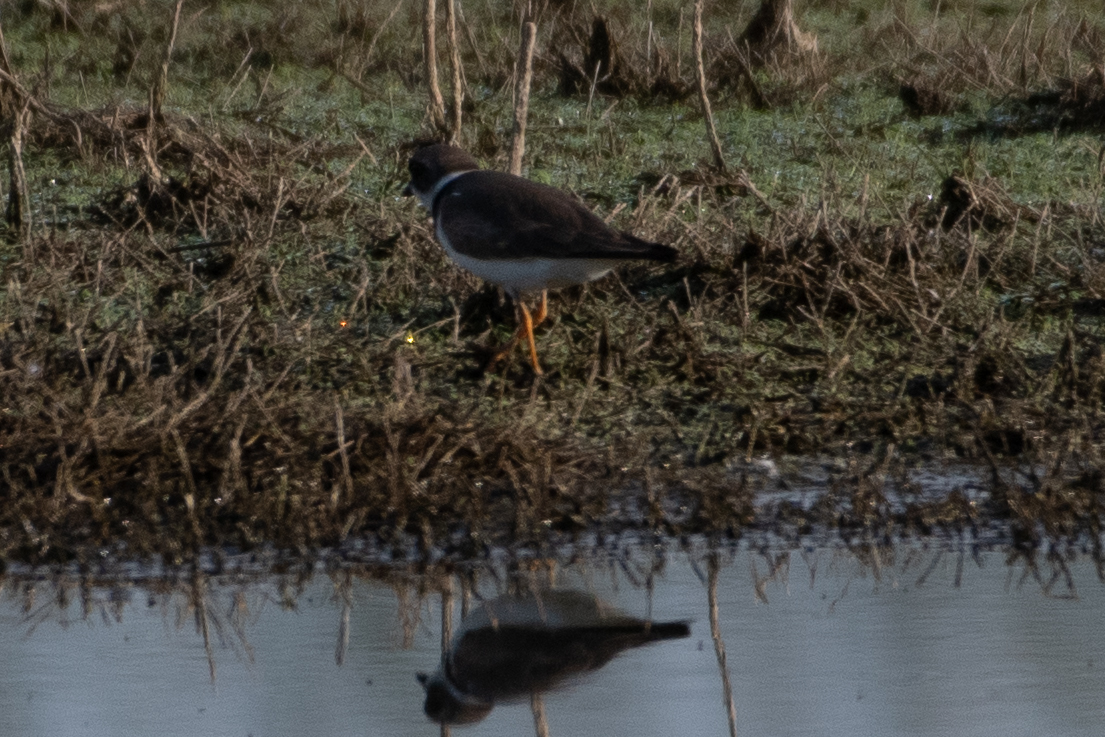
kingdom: Animalia
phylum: Chordata
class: Aves
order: Charadriiformes
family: Charadriidae
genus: Charadrius
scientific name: Charadrius semipalmatus
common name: Semipalmated plover
